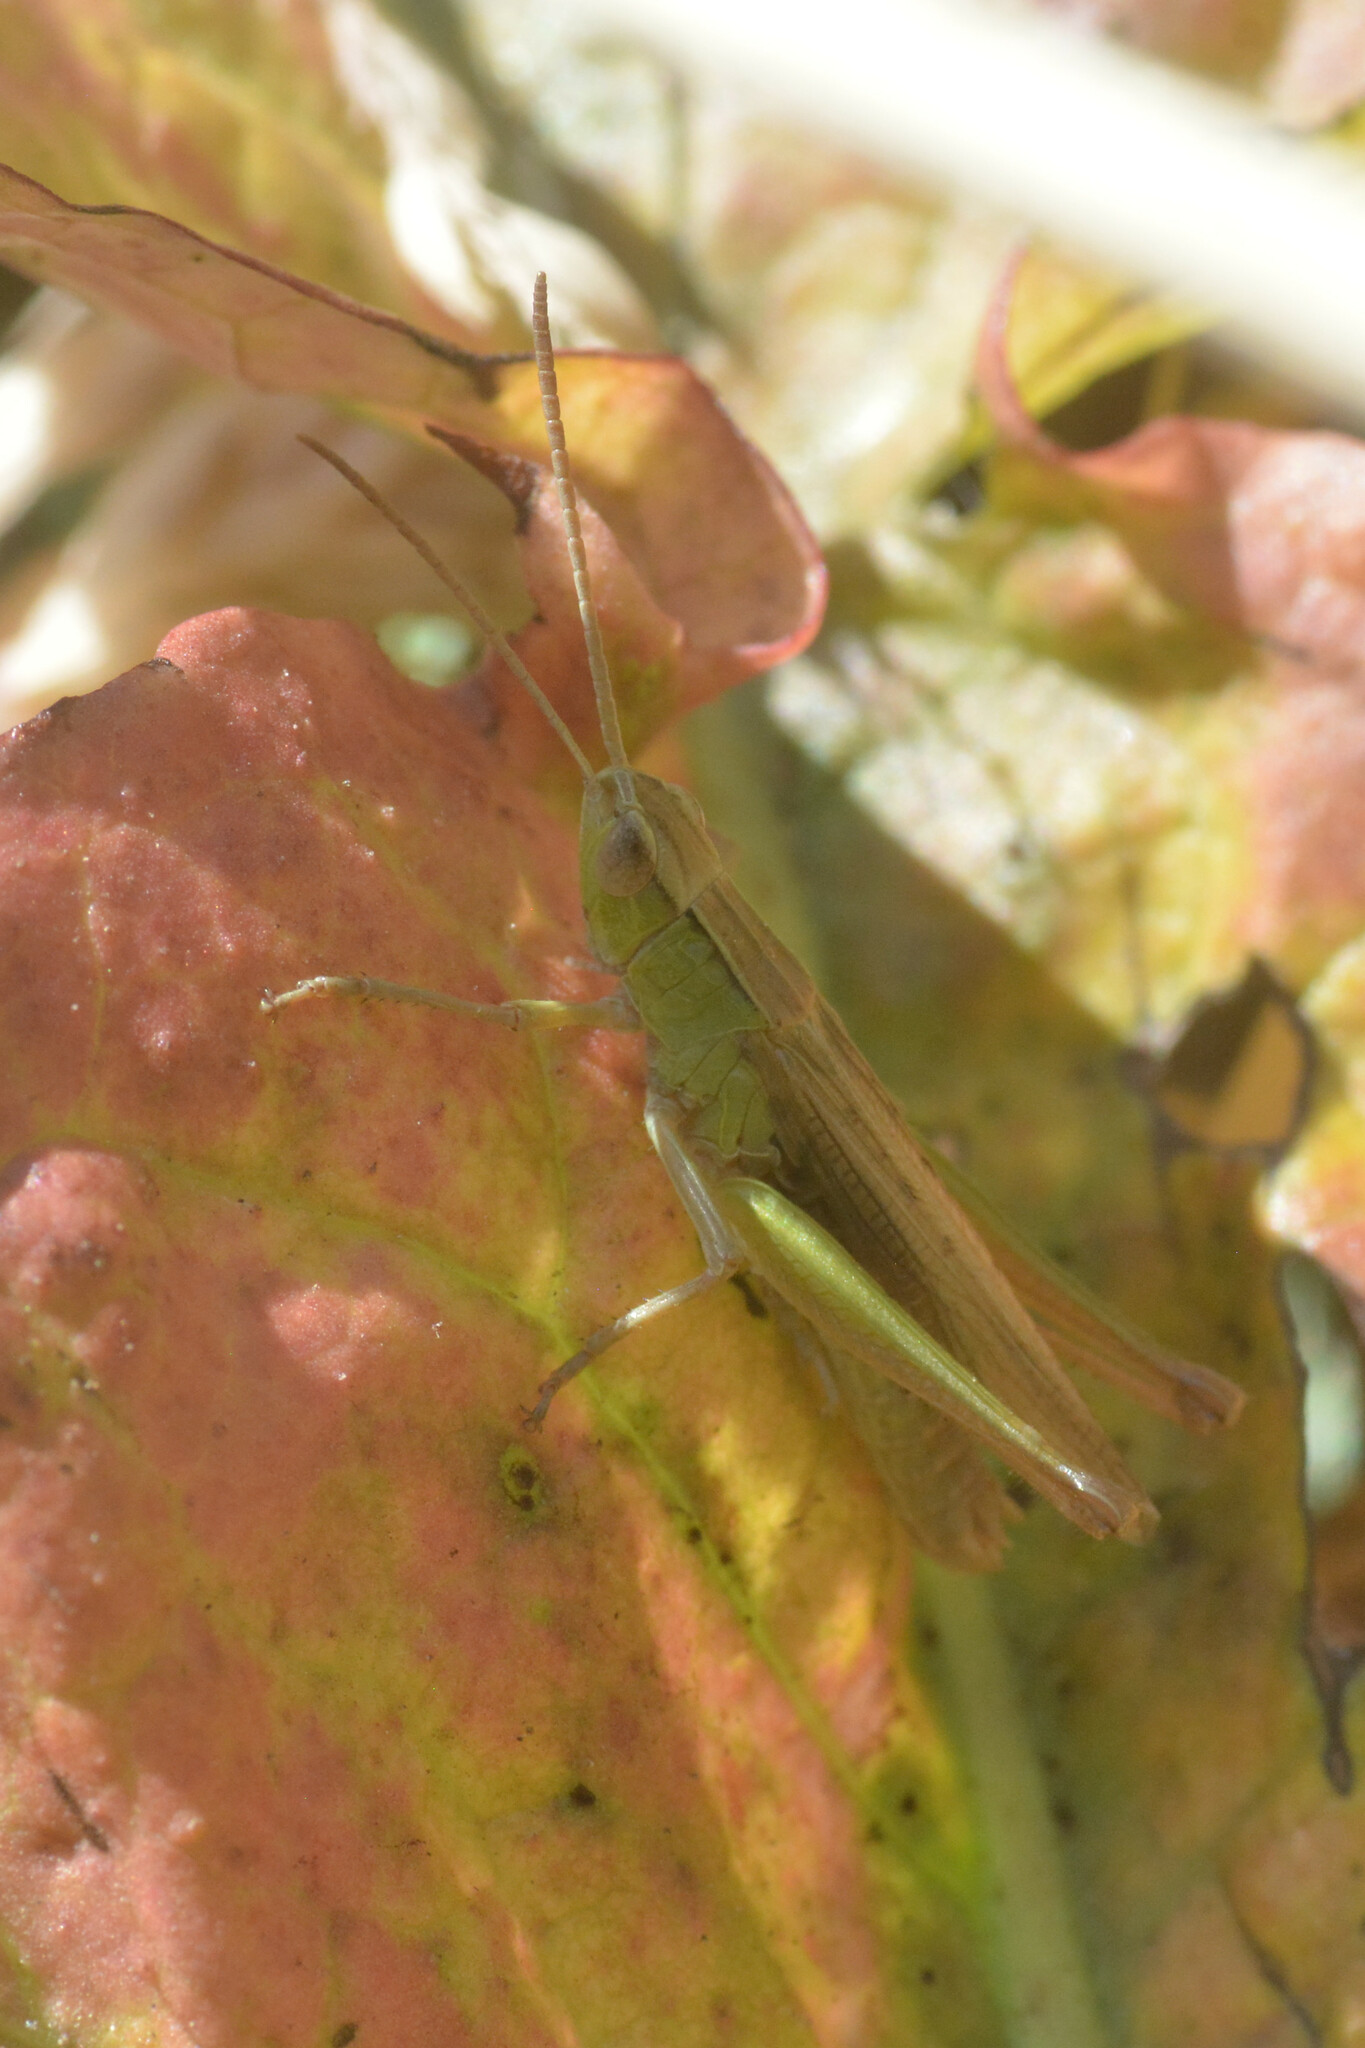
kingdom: Animalia
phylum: Arthropoda
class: Insecta
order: Orthoptera
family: Acrididae
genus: Pseudochorthippus
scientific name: Pseudochorthippus parallelus
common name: Meadow grasshopper
